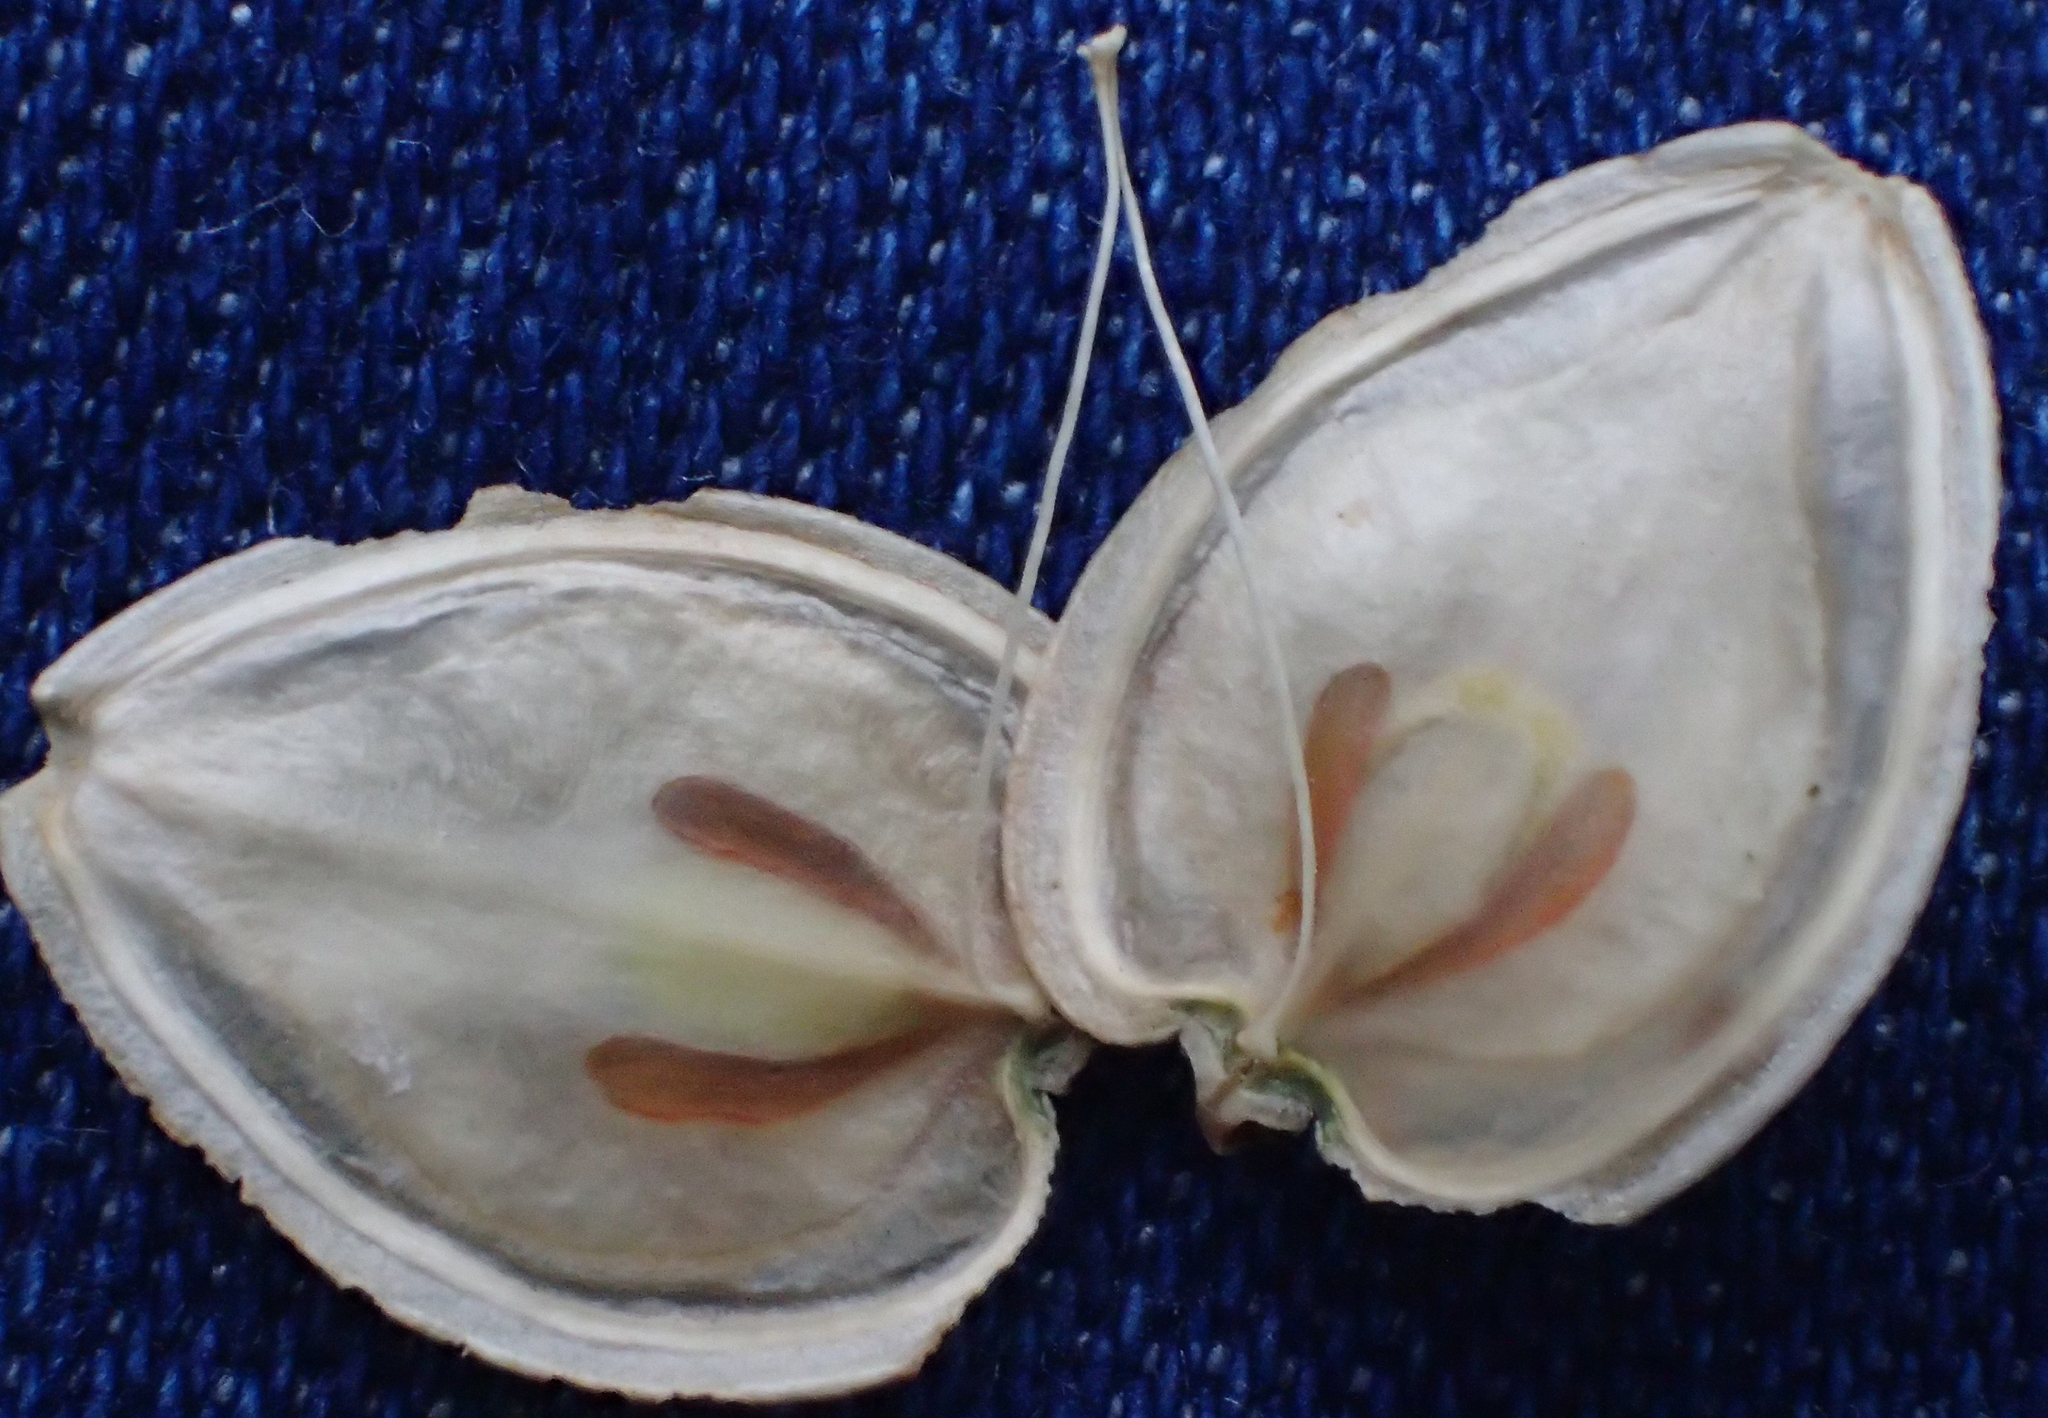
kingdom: Plantae
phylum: Tracheophyta
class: Magnoliopsida
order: Apiales
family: Apiaceae
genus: Heracleum
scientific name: Heracleum maximum
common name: American cow parsnip
